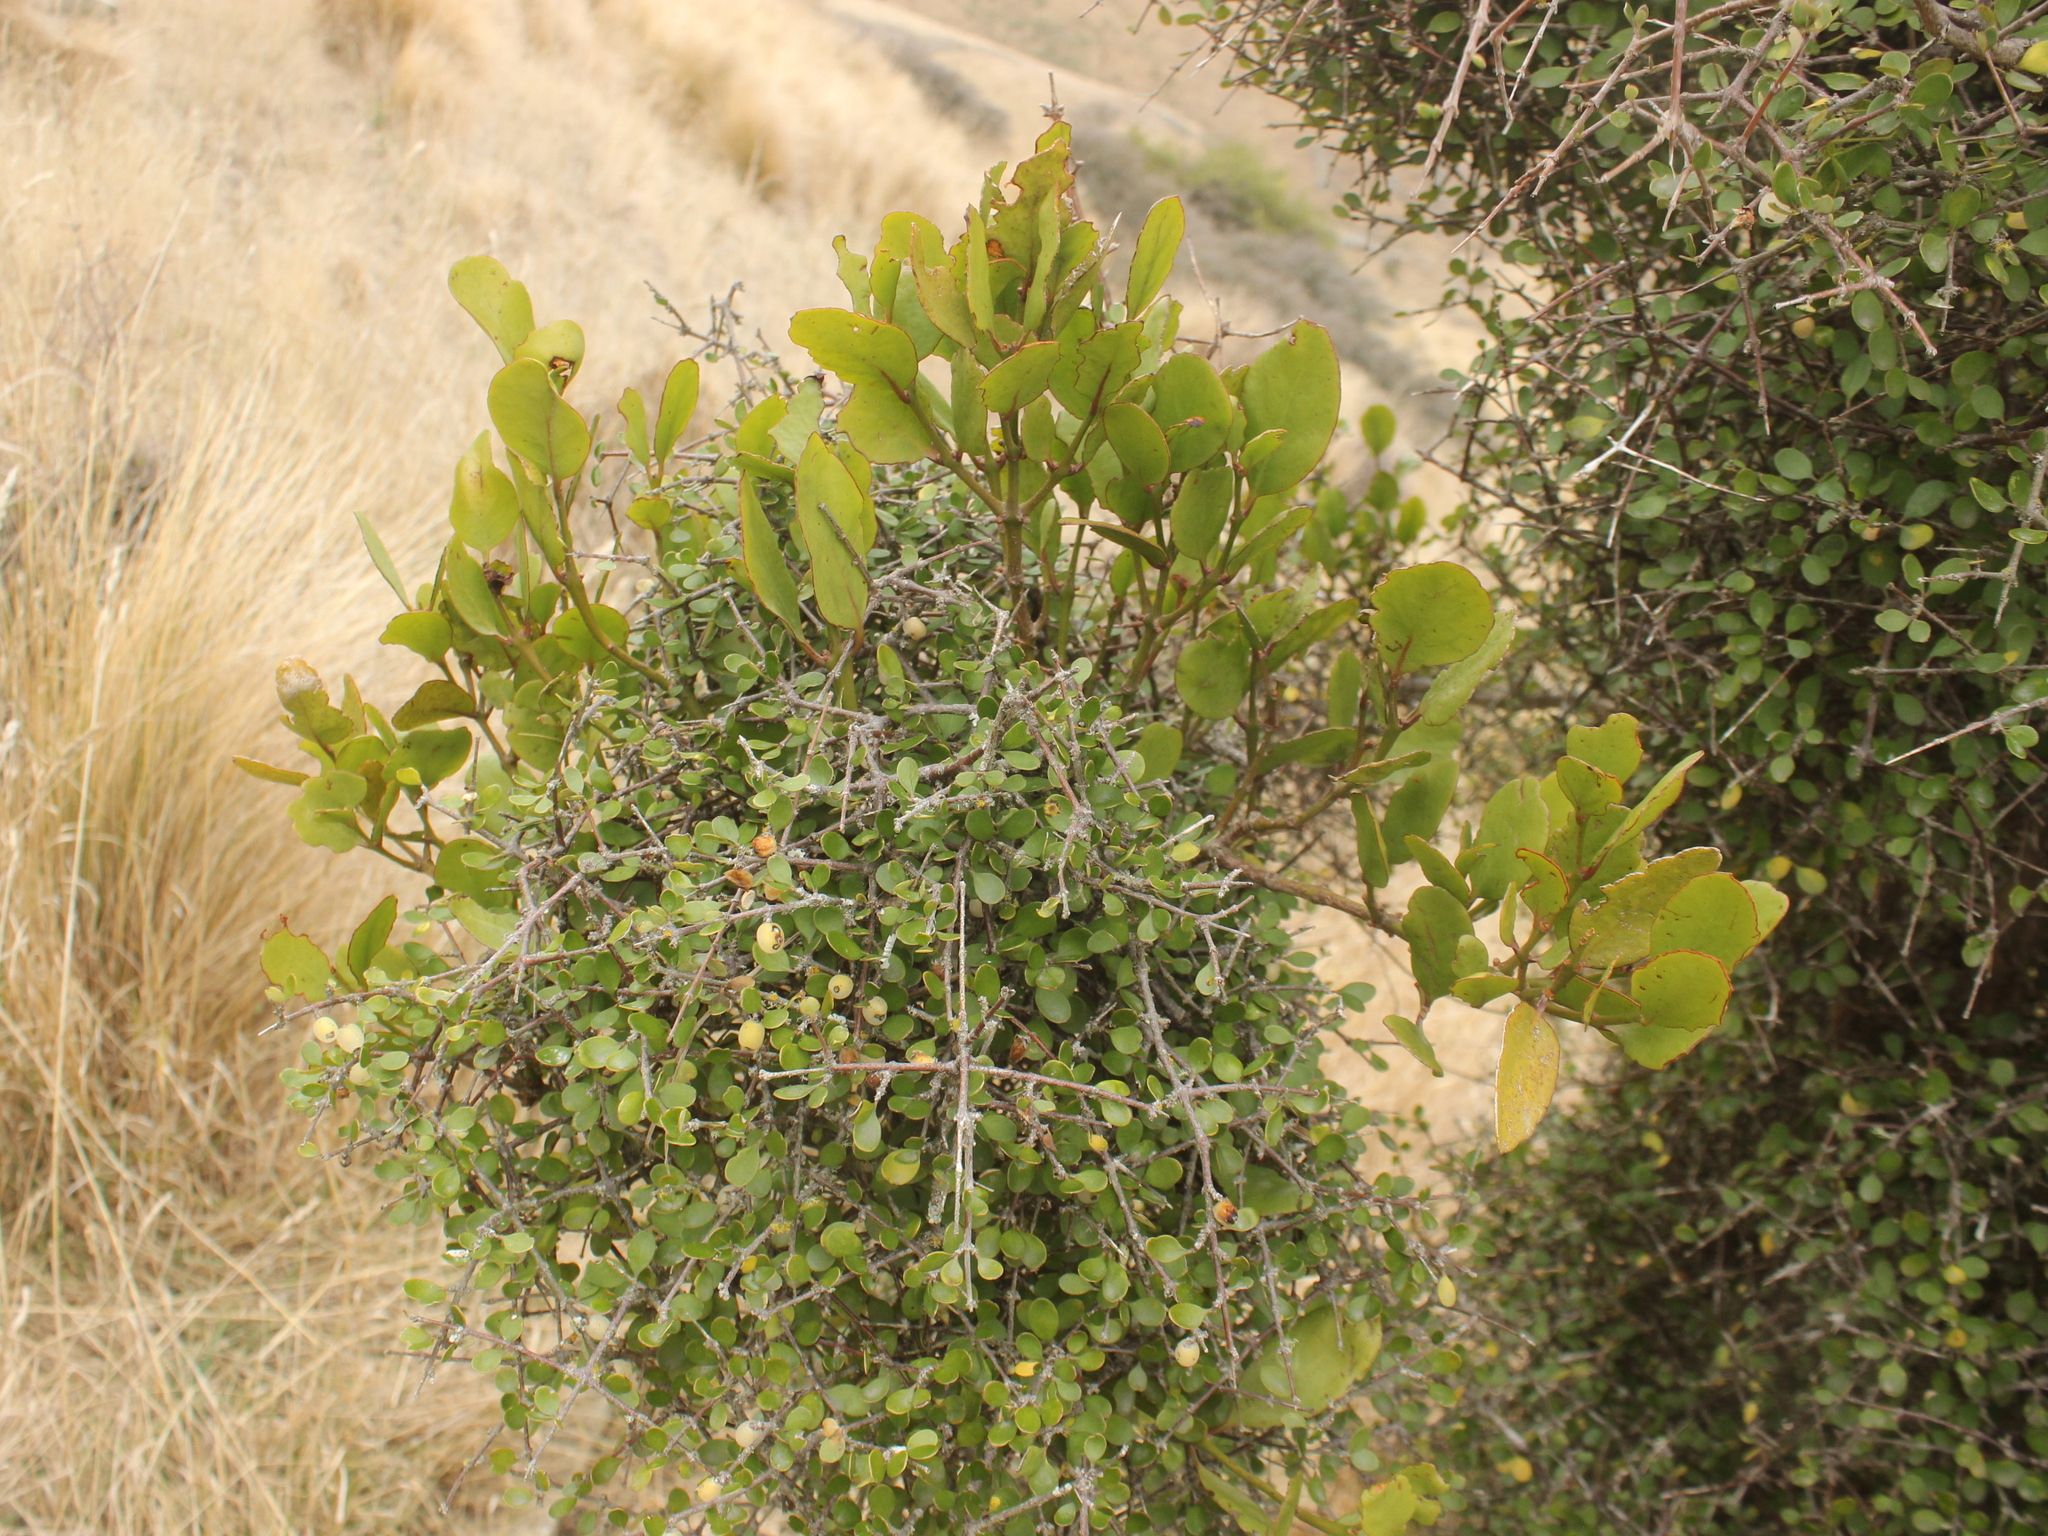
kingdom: Plantae
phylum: Tracheophyta
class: Magnoliopsida
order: Santalales
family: Loranthaceae
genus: Ileostylus
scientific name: Ileostylus micranthus
